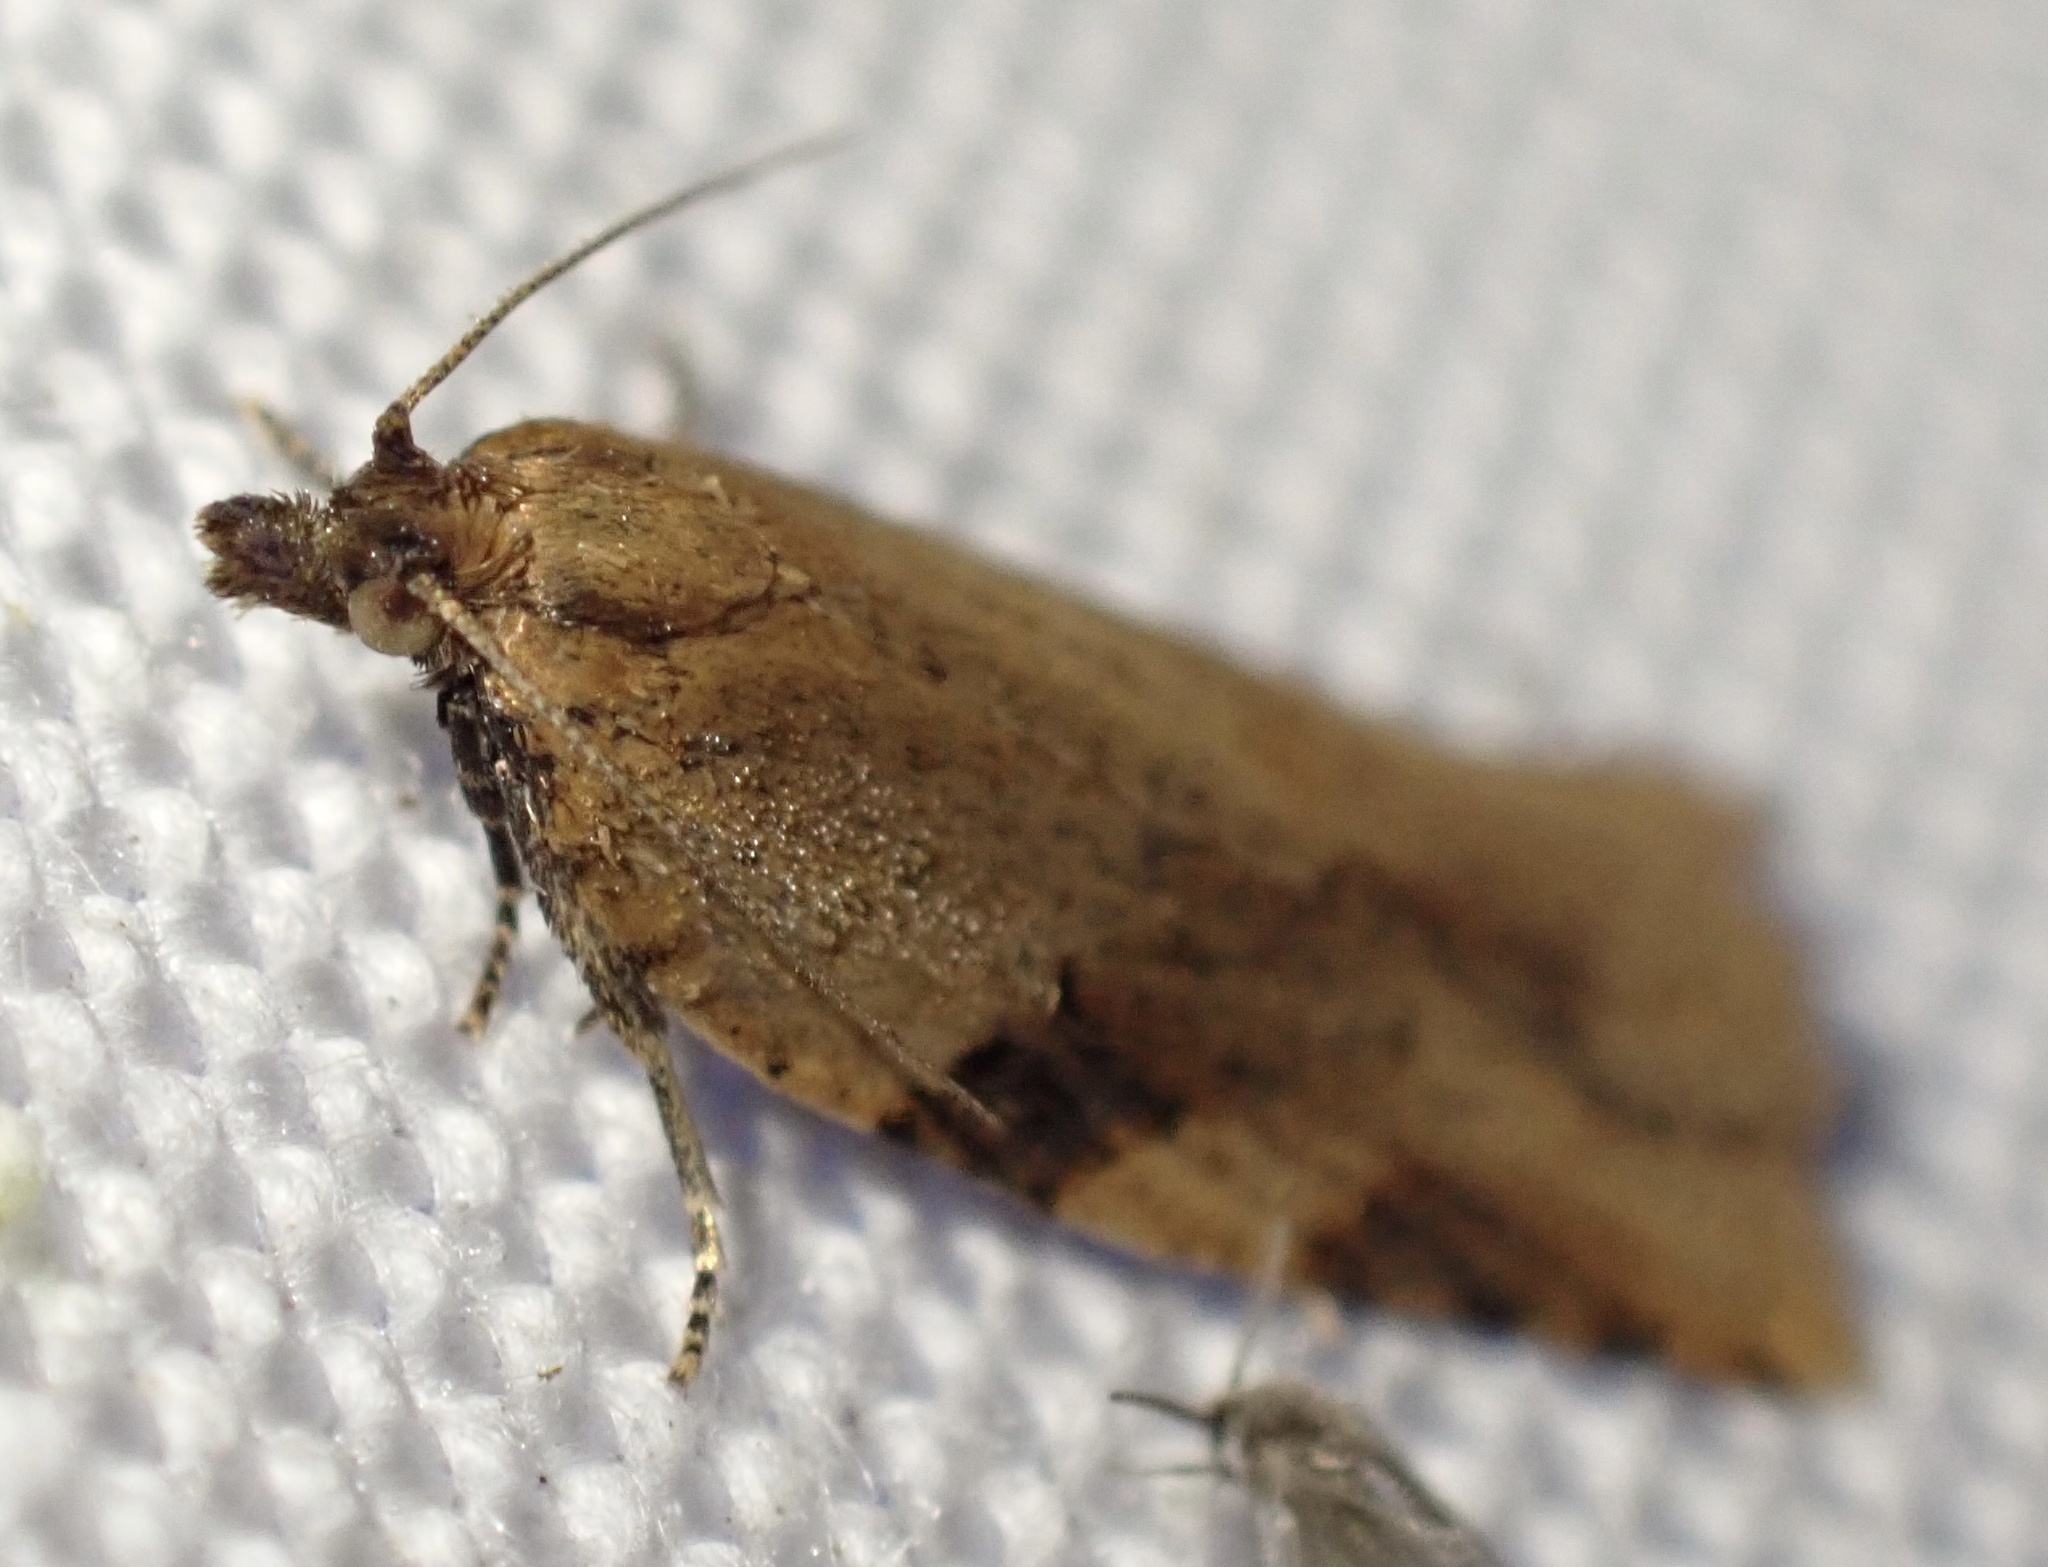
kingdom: Animalia
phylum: Arthropoda
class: Insecta
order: Lepidoptera
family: Tortricidae
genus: Clepsis
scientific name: Clepsis spectrana
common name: Cyclamen tortrix
